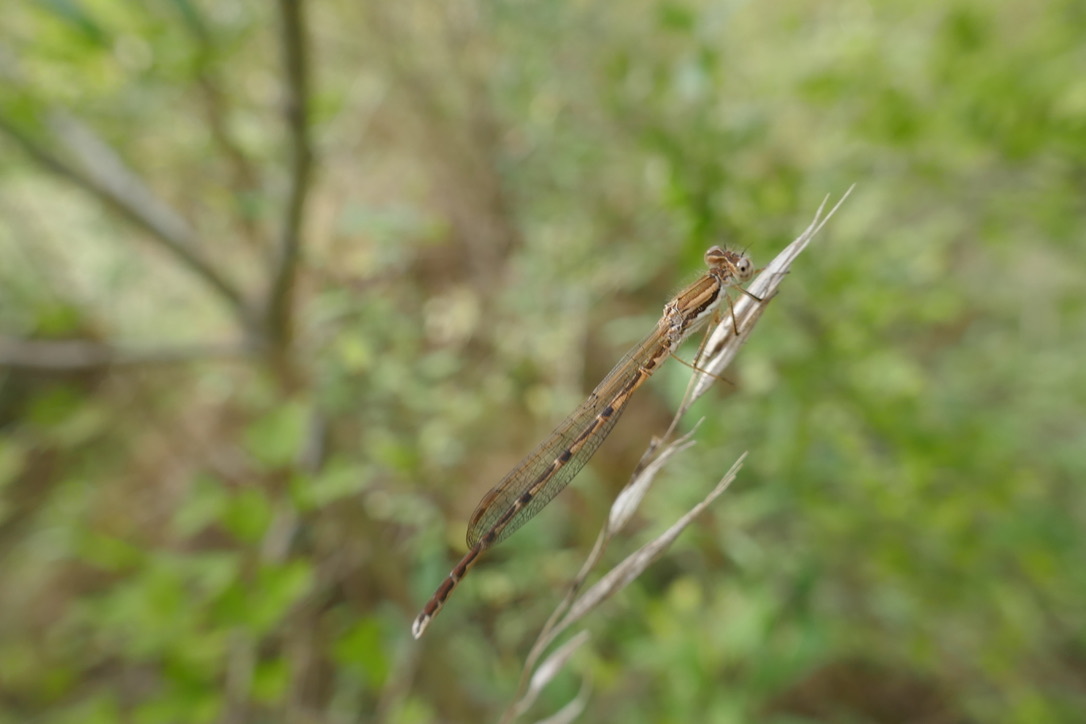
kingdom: Animalia
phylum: Arthropoda
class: Insecta
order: Odonata
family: Lestidae
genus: Sympecma
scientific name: Sympecma fusca
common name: Common winter damsel
